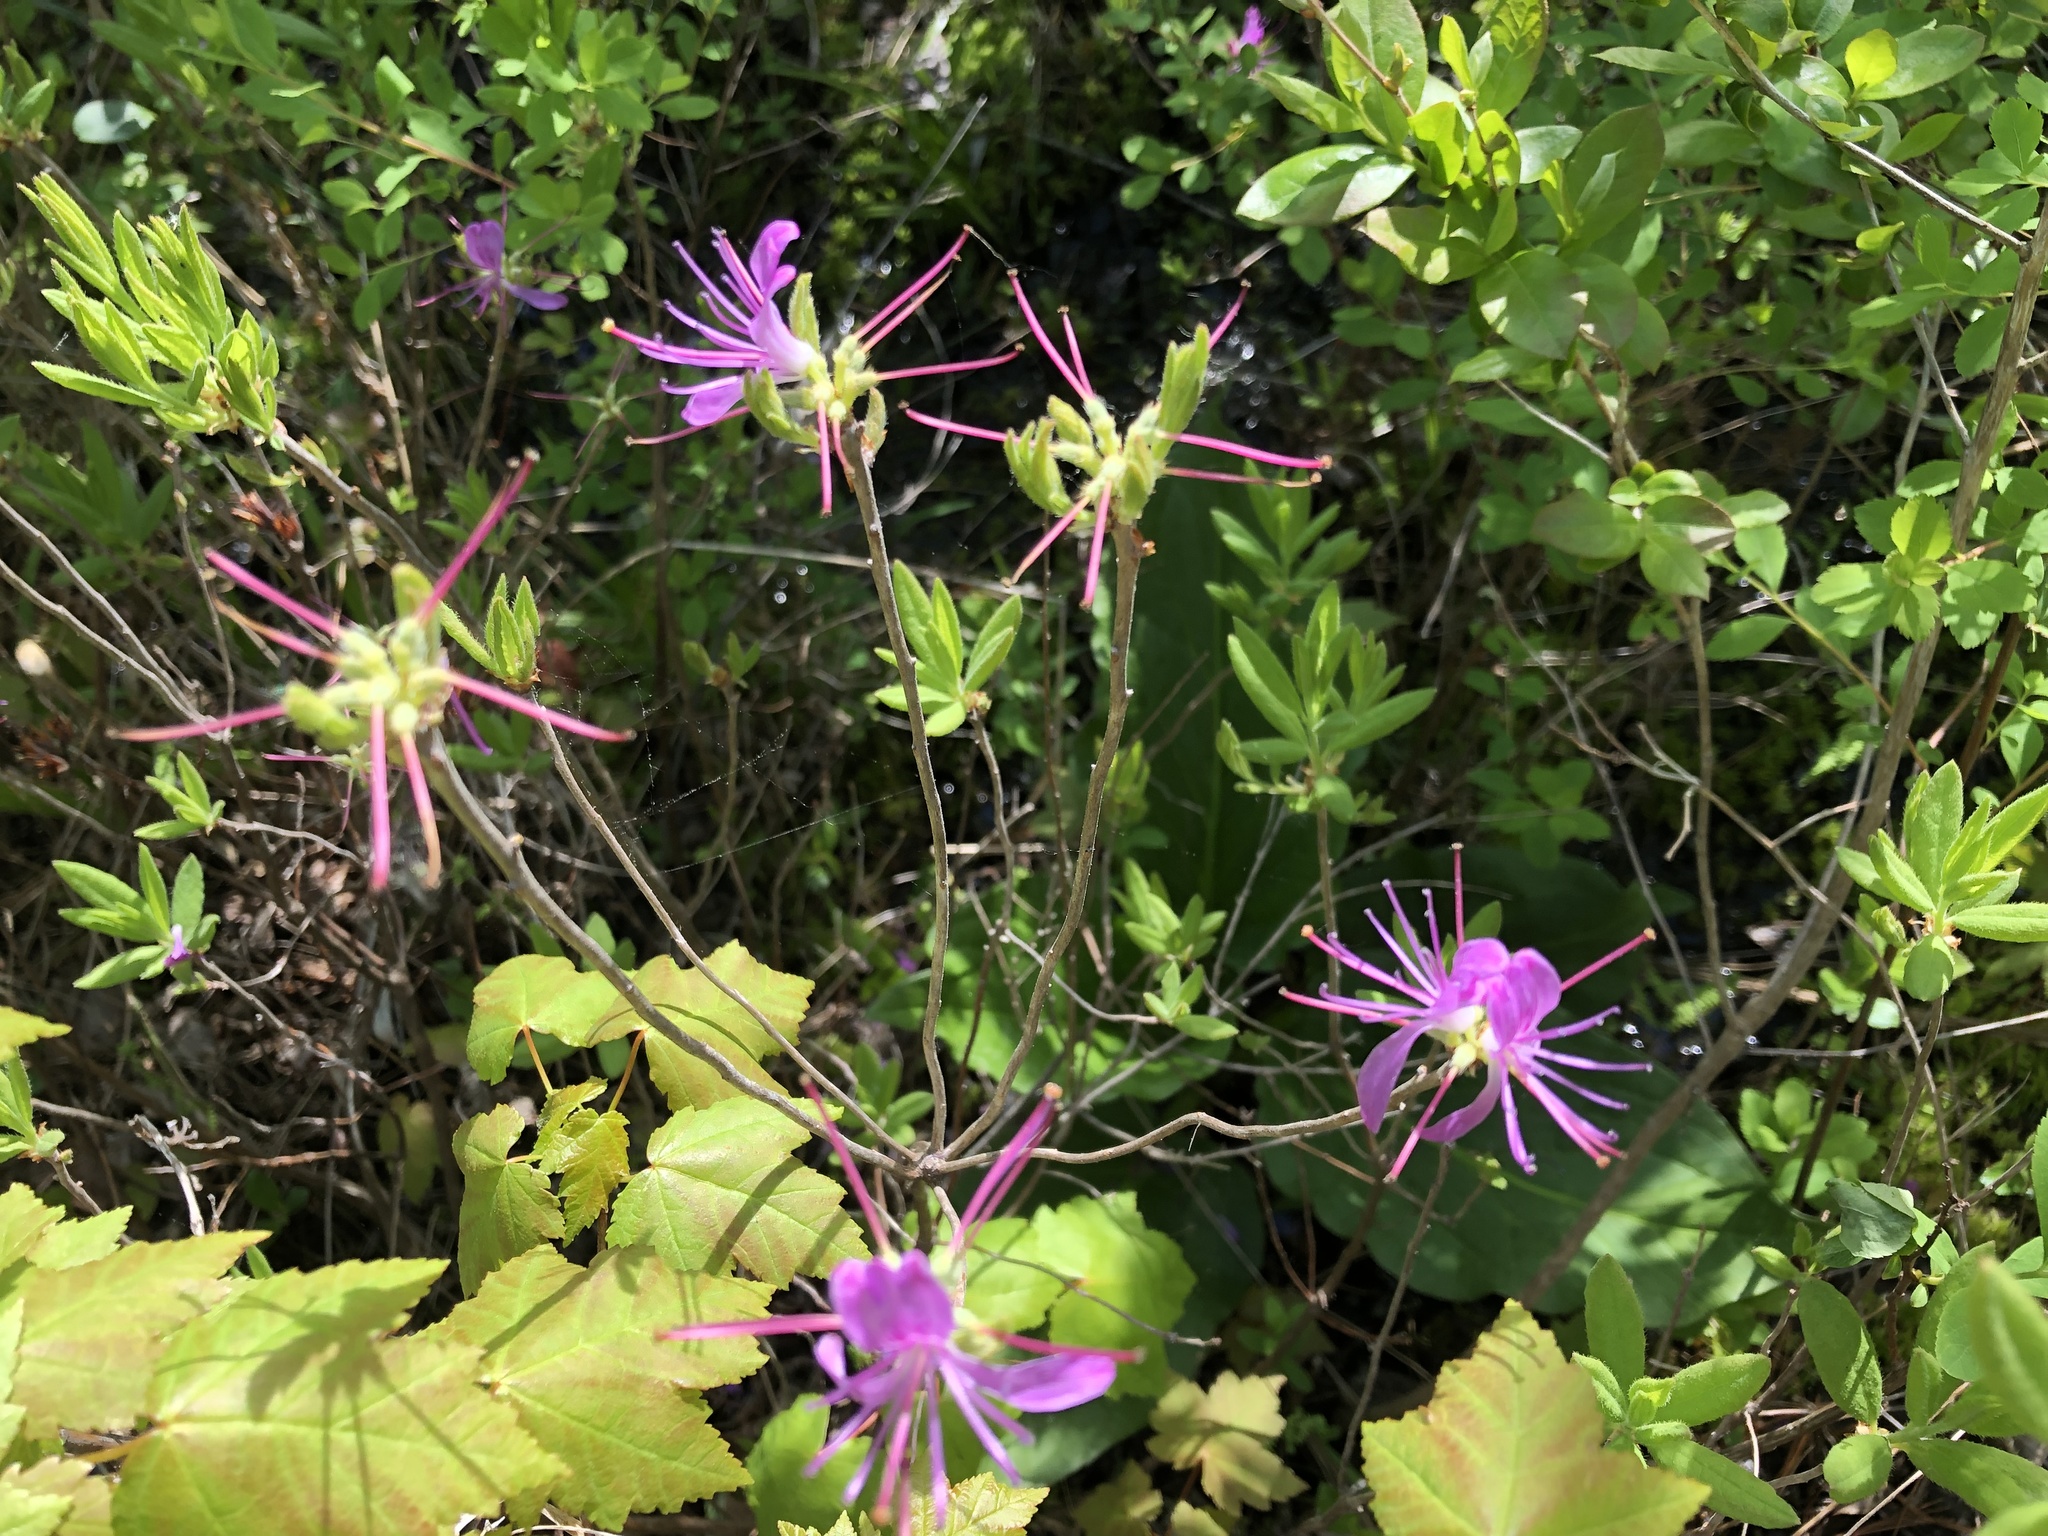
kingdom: Plantae
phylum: Tracheophyta
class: Magnoliopsida
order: Ericales
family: Ericaceae
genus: Rhododendron
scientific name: Rhododendron canadense
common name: Rhodora
